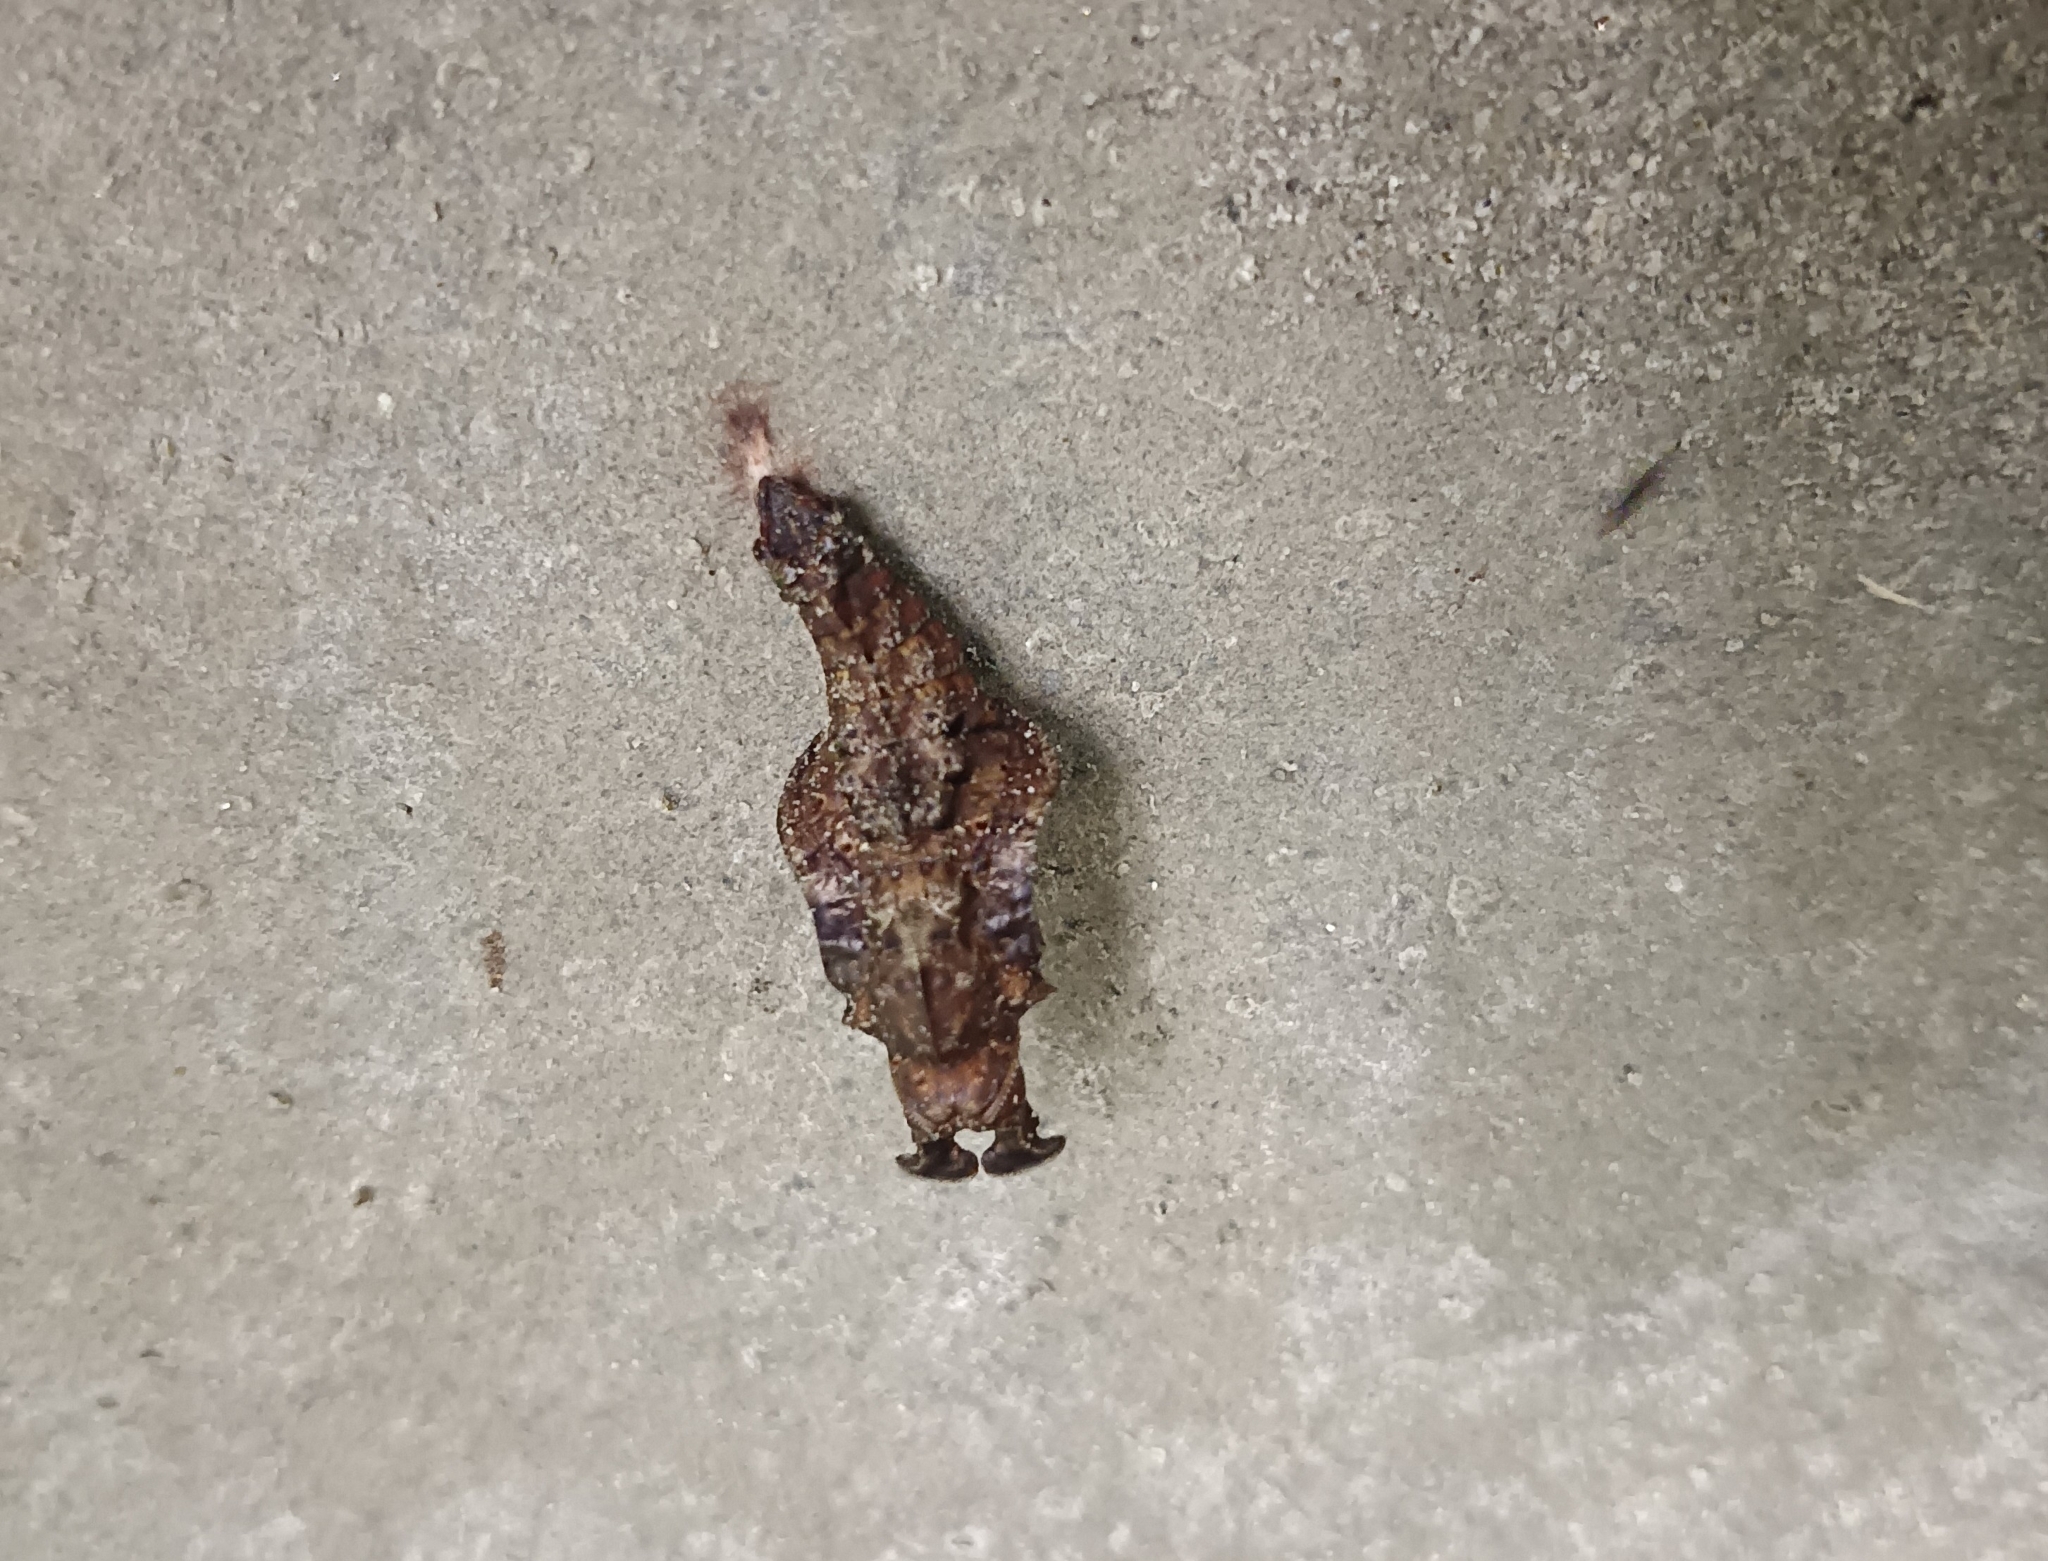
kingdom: Animalia
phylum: Arthropoda
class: Insecta
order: Lepidoptera
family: Nymphalidae
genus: Limenitis
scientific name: Limenitis Moduza procris
